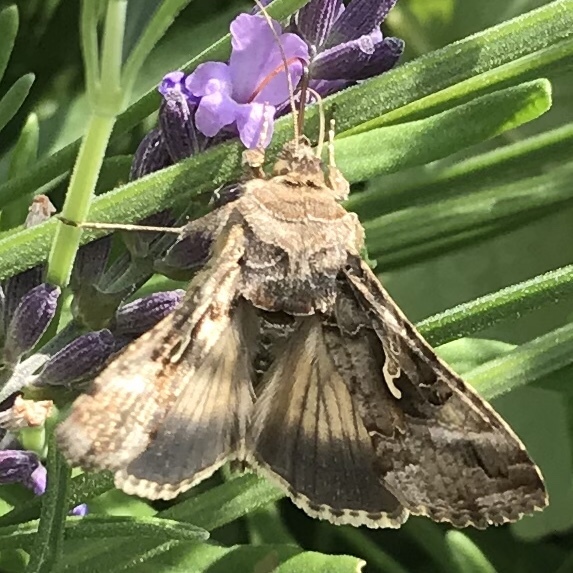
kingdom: Animalia
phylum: Arthropoda
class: Insecta
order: Lepidoptera
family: Noctuidae
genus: Autographa
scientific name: Autographa gamma
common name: Silver y
